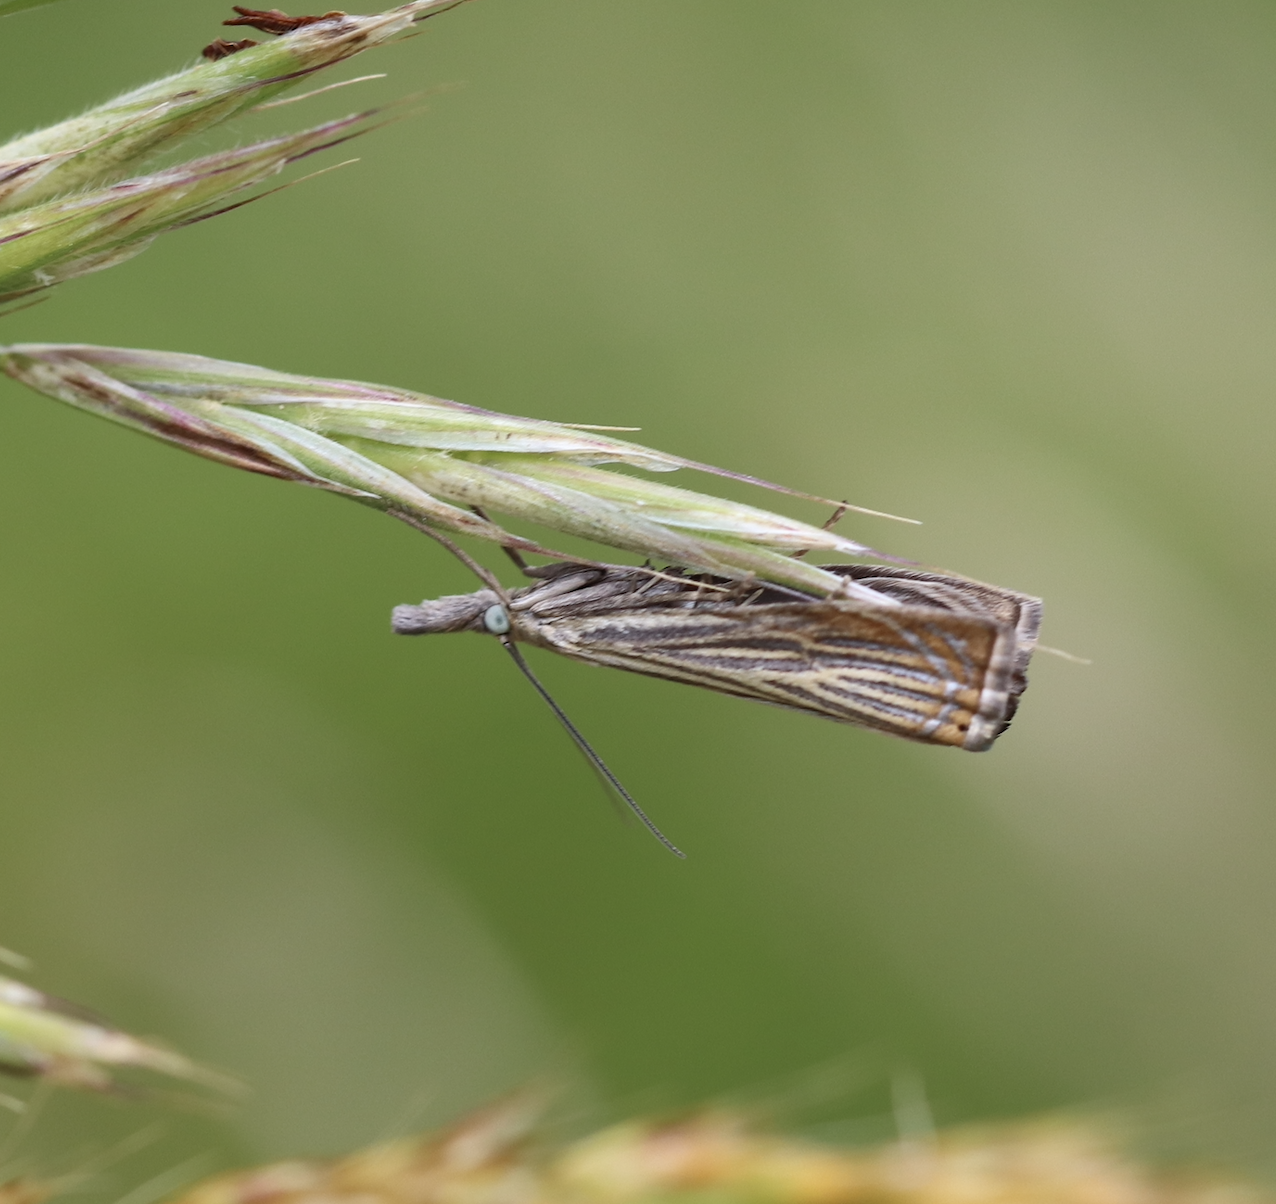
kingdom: Animalia
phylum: Arthropoda
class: Insecta
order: Lepidoptera
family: Crambidae
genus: Chrysoteuchia
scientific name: Chrysoteuchia culmella
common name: Garden grass-veneer
